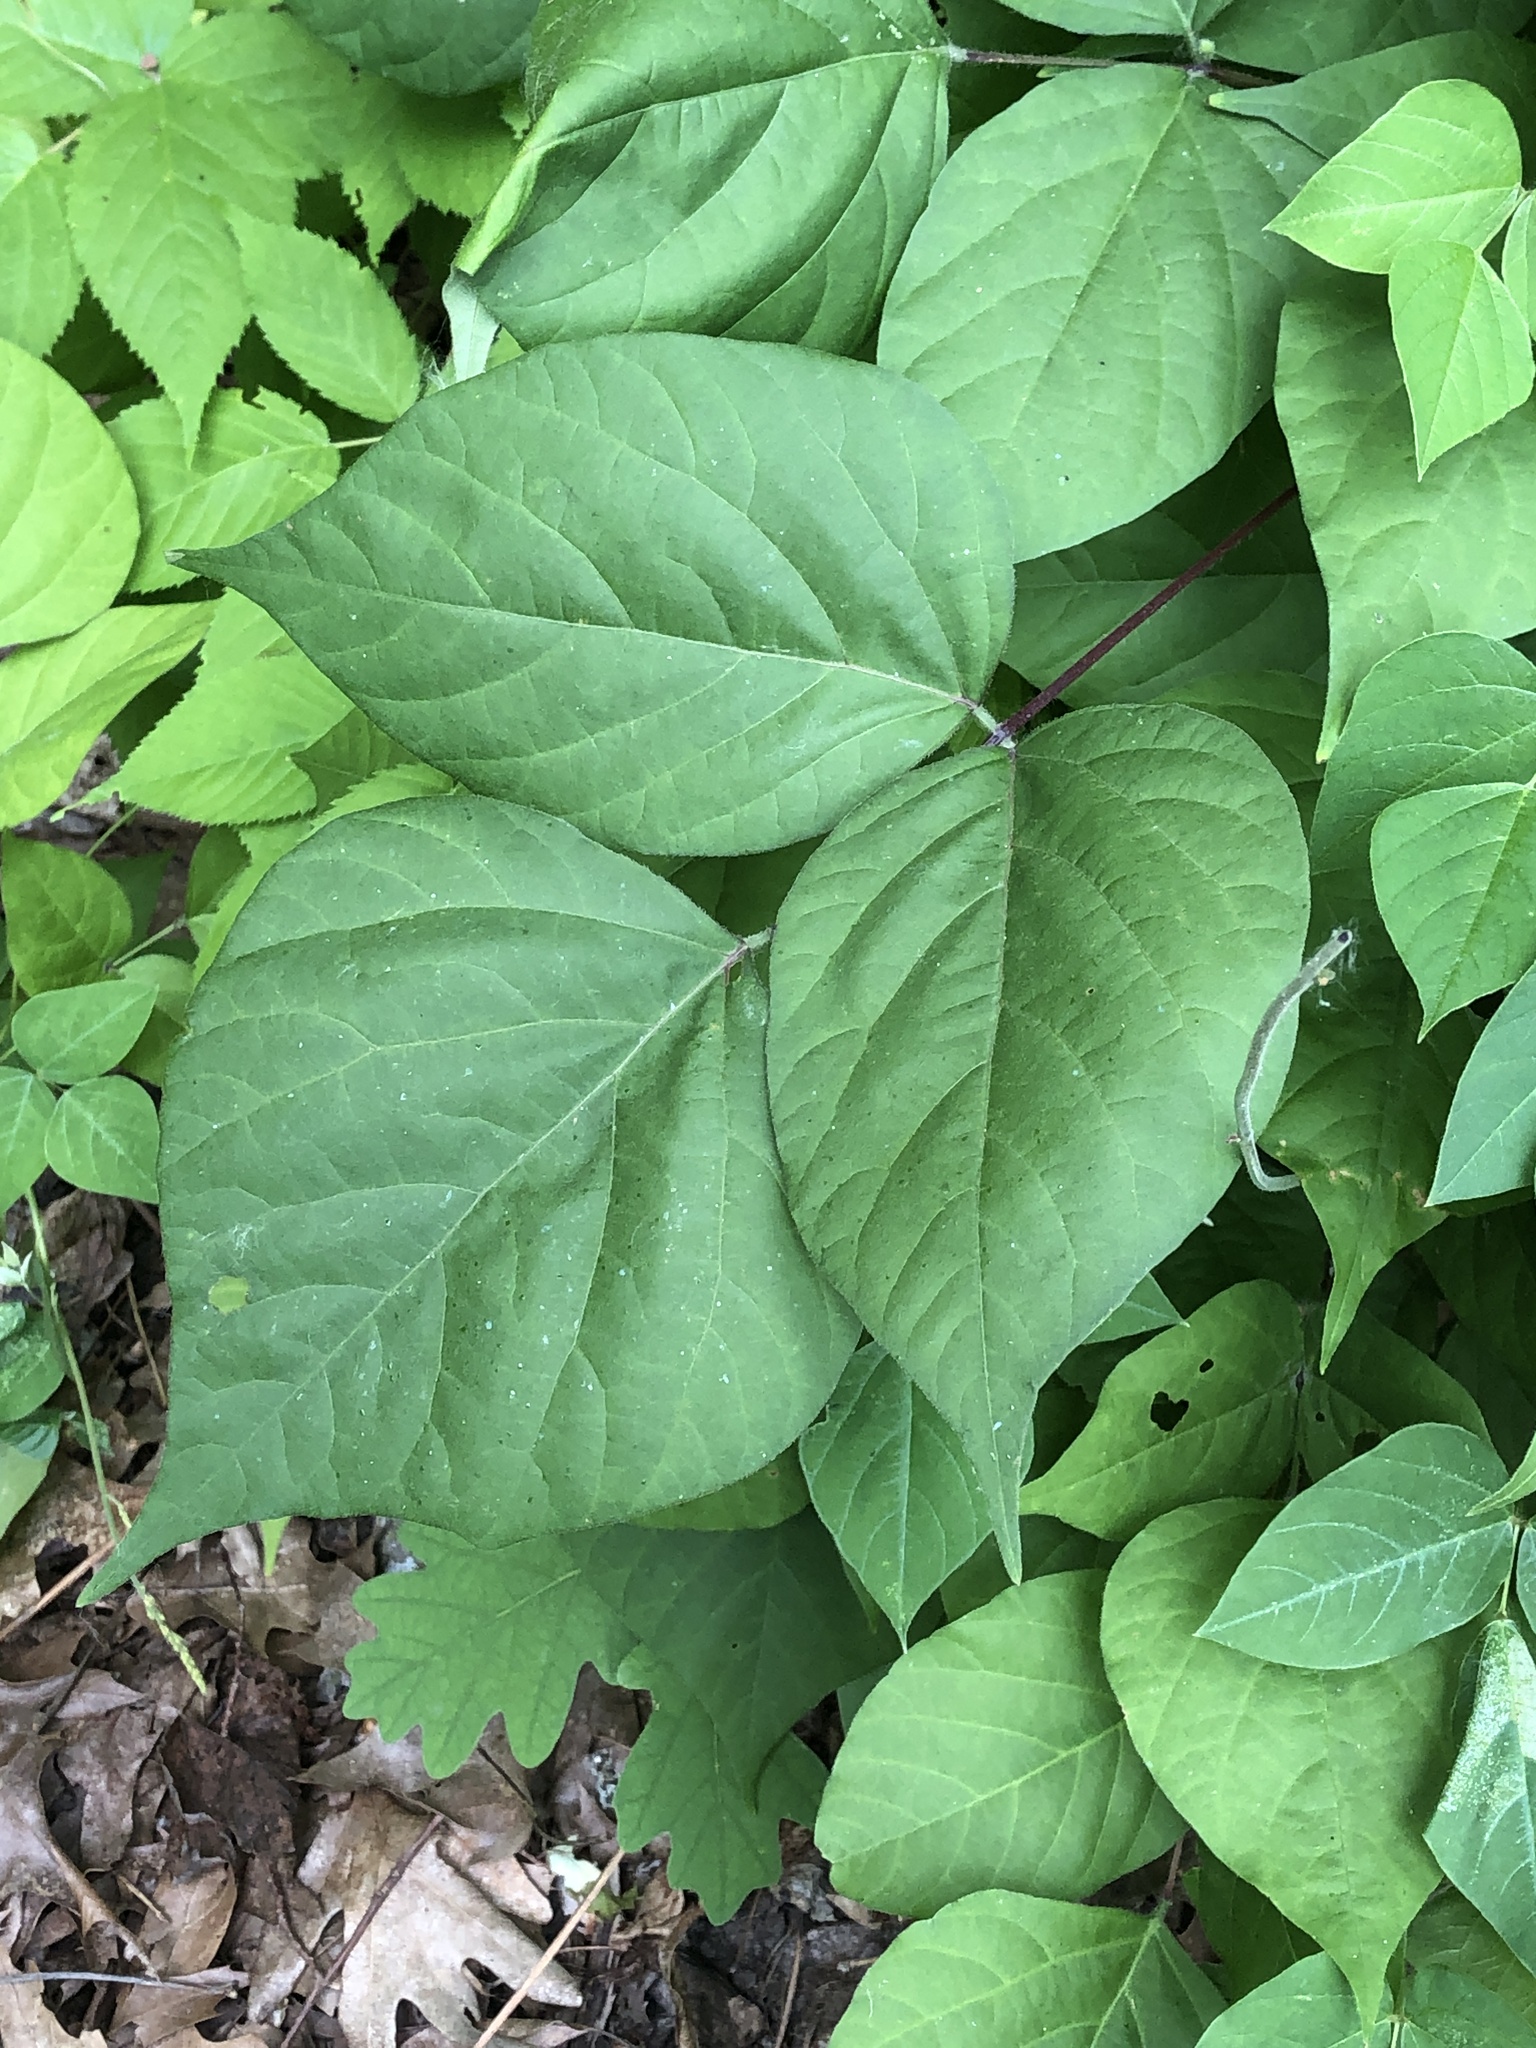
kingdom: Plantae
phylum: Tracheophyta
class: Magnoliopsida
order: Fabales
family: Fabaceae
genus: Hylodesmum
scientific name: Hylodesmum glutinosum
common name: Clustered-leaved tick-trefoil
